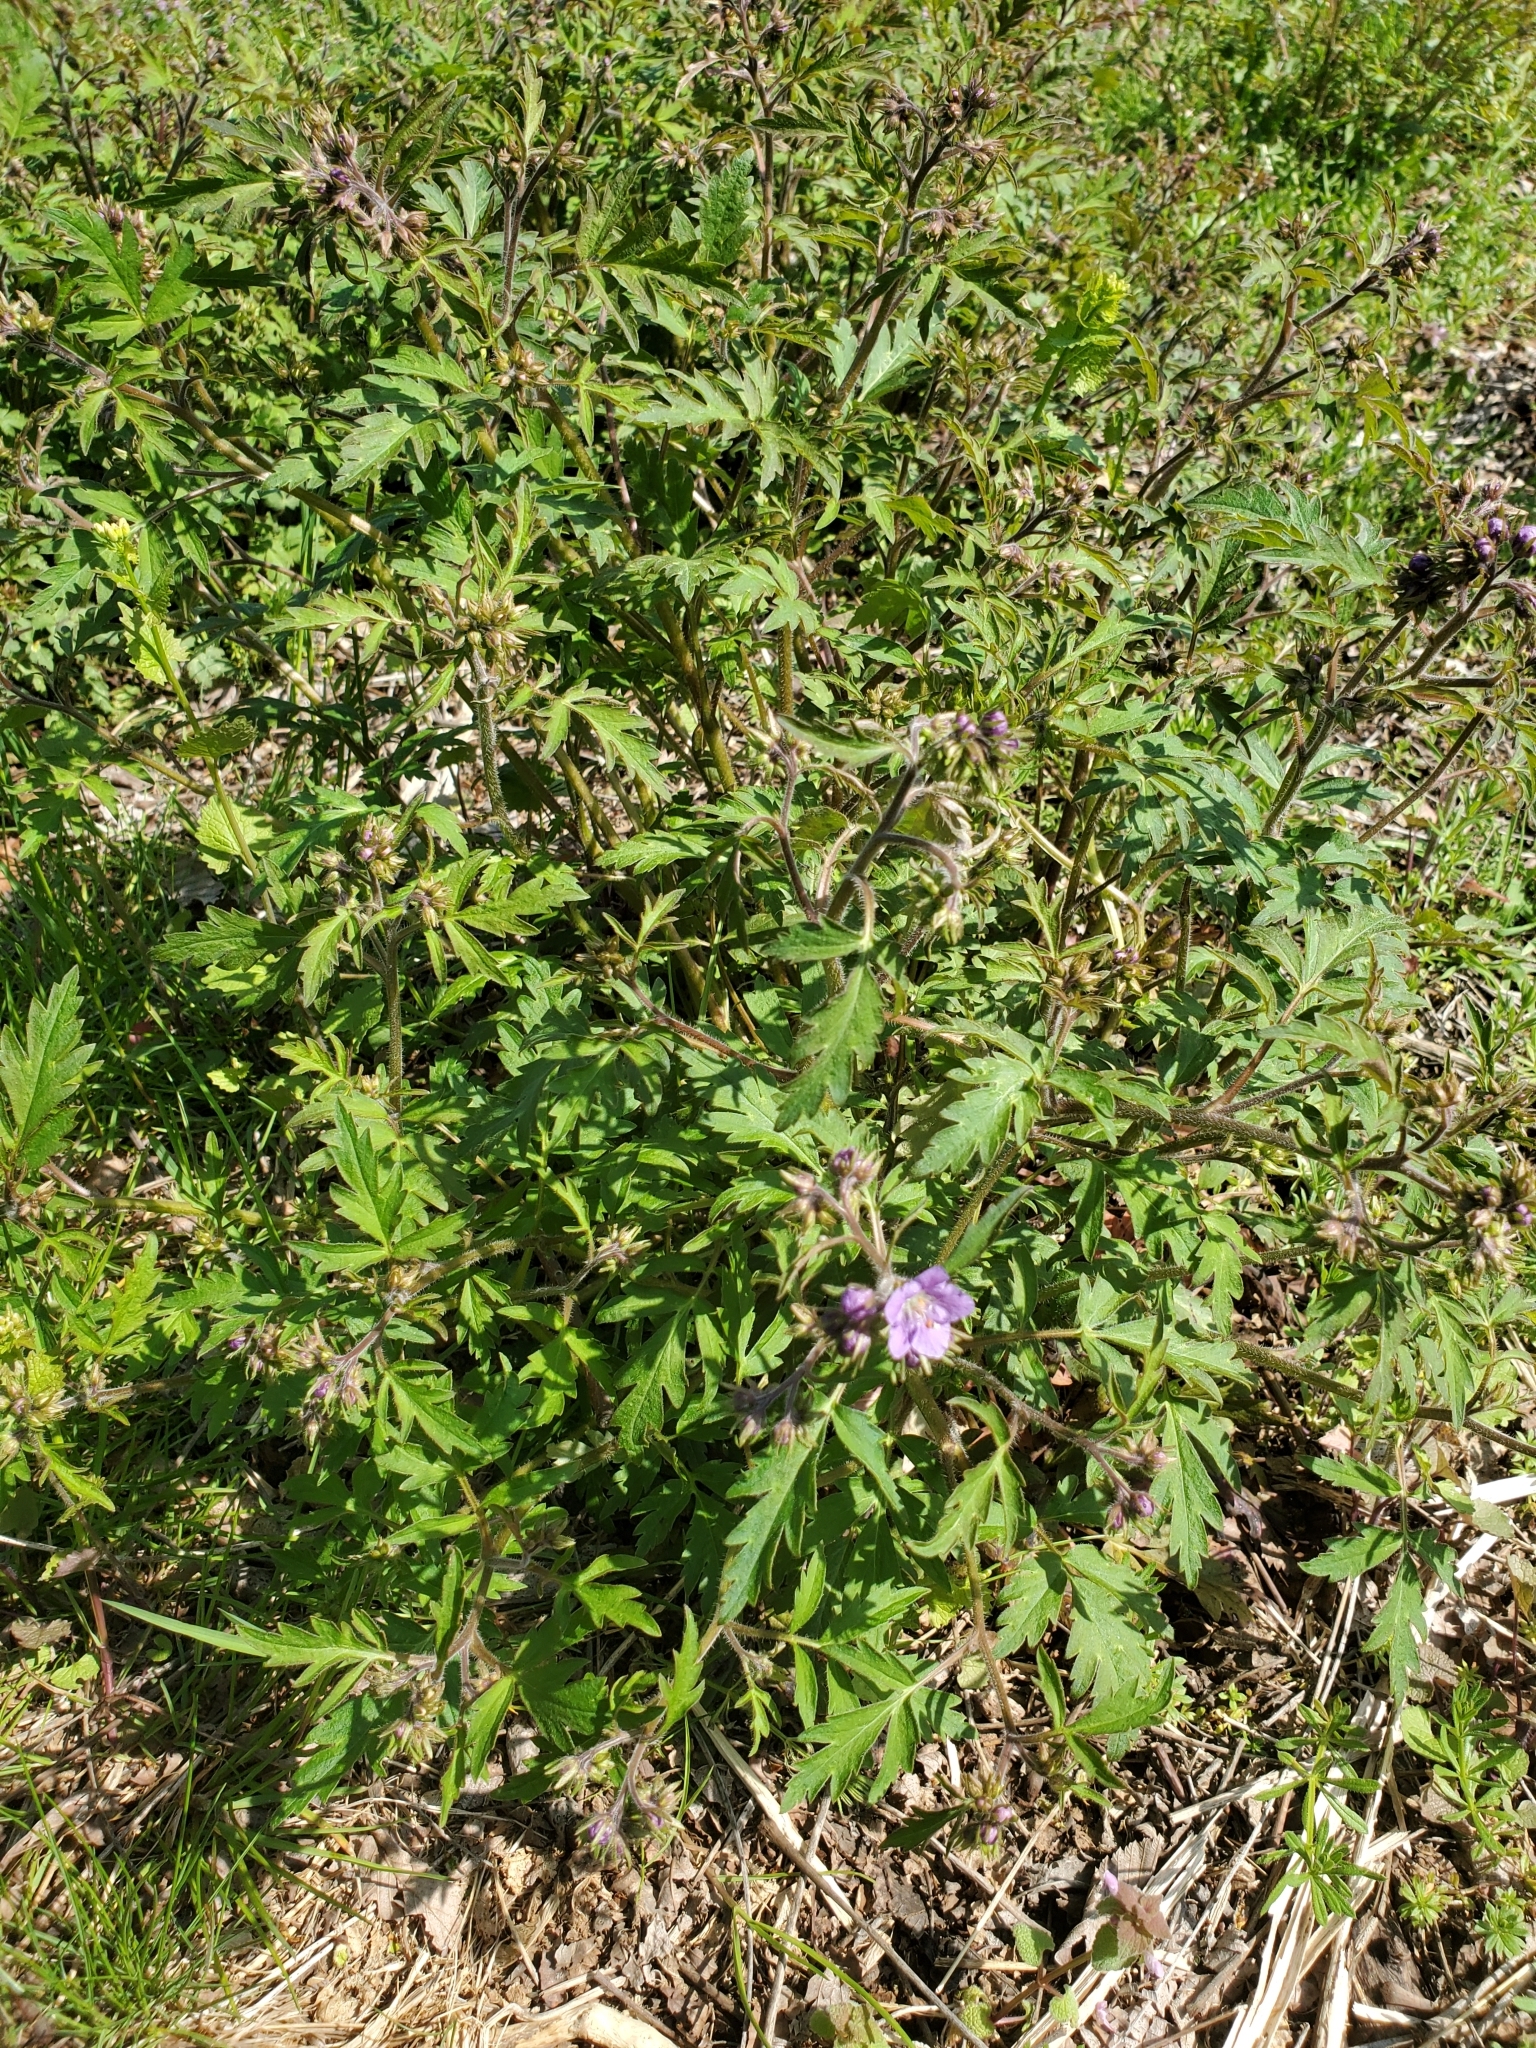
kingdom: Plantae
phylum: Tracheophyta
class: Magnoliopsida
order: Boraginales
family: Hydrophyllaceae
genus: Phacelia
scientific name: Phacelia bipinnatifida
